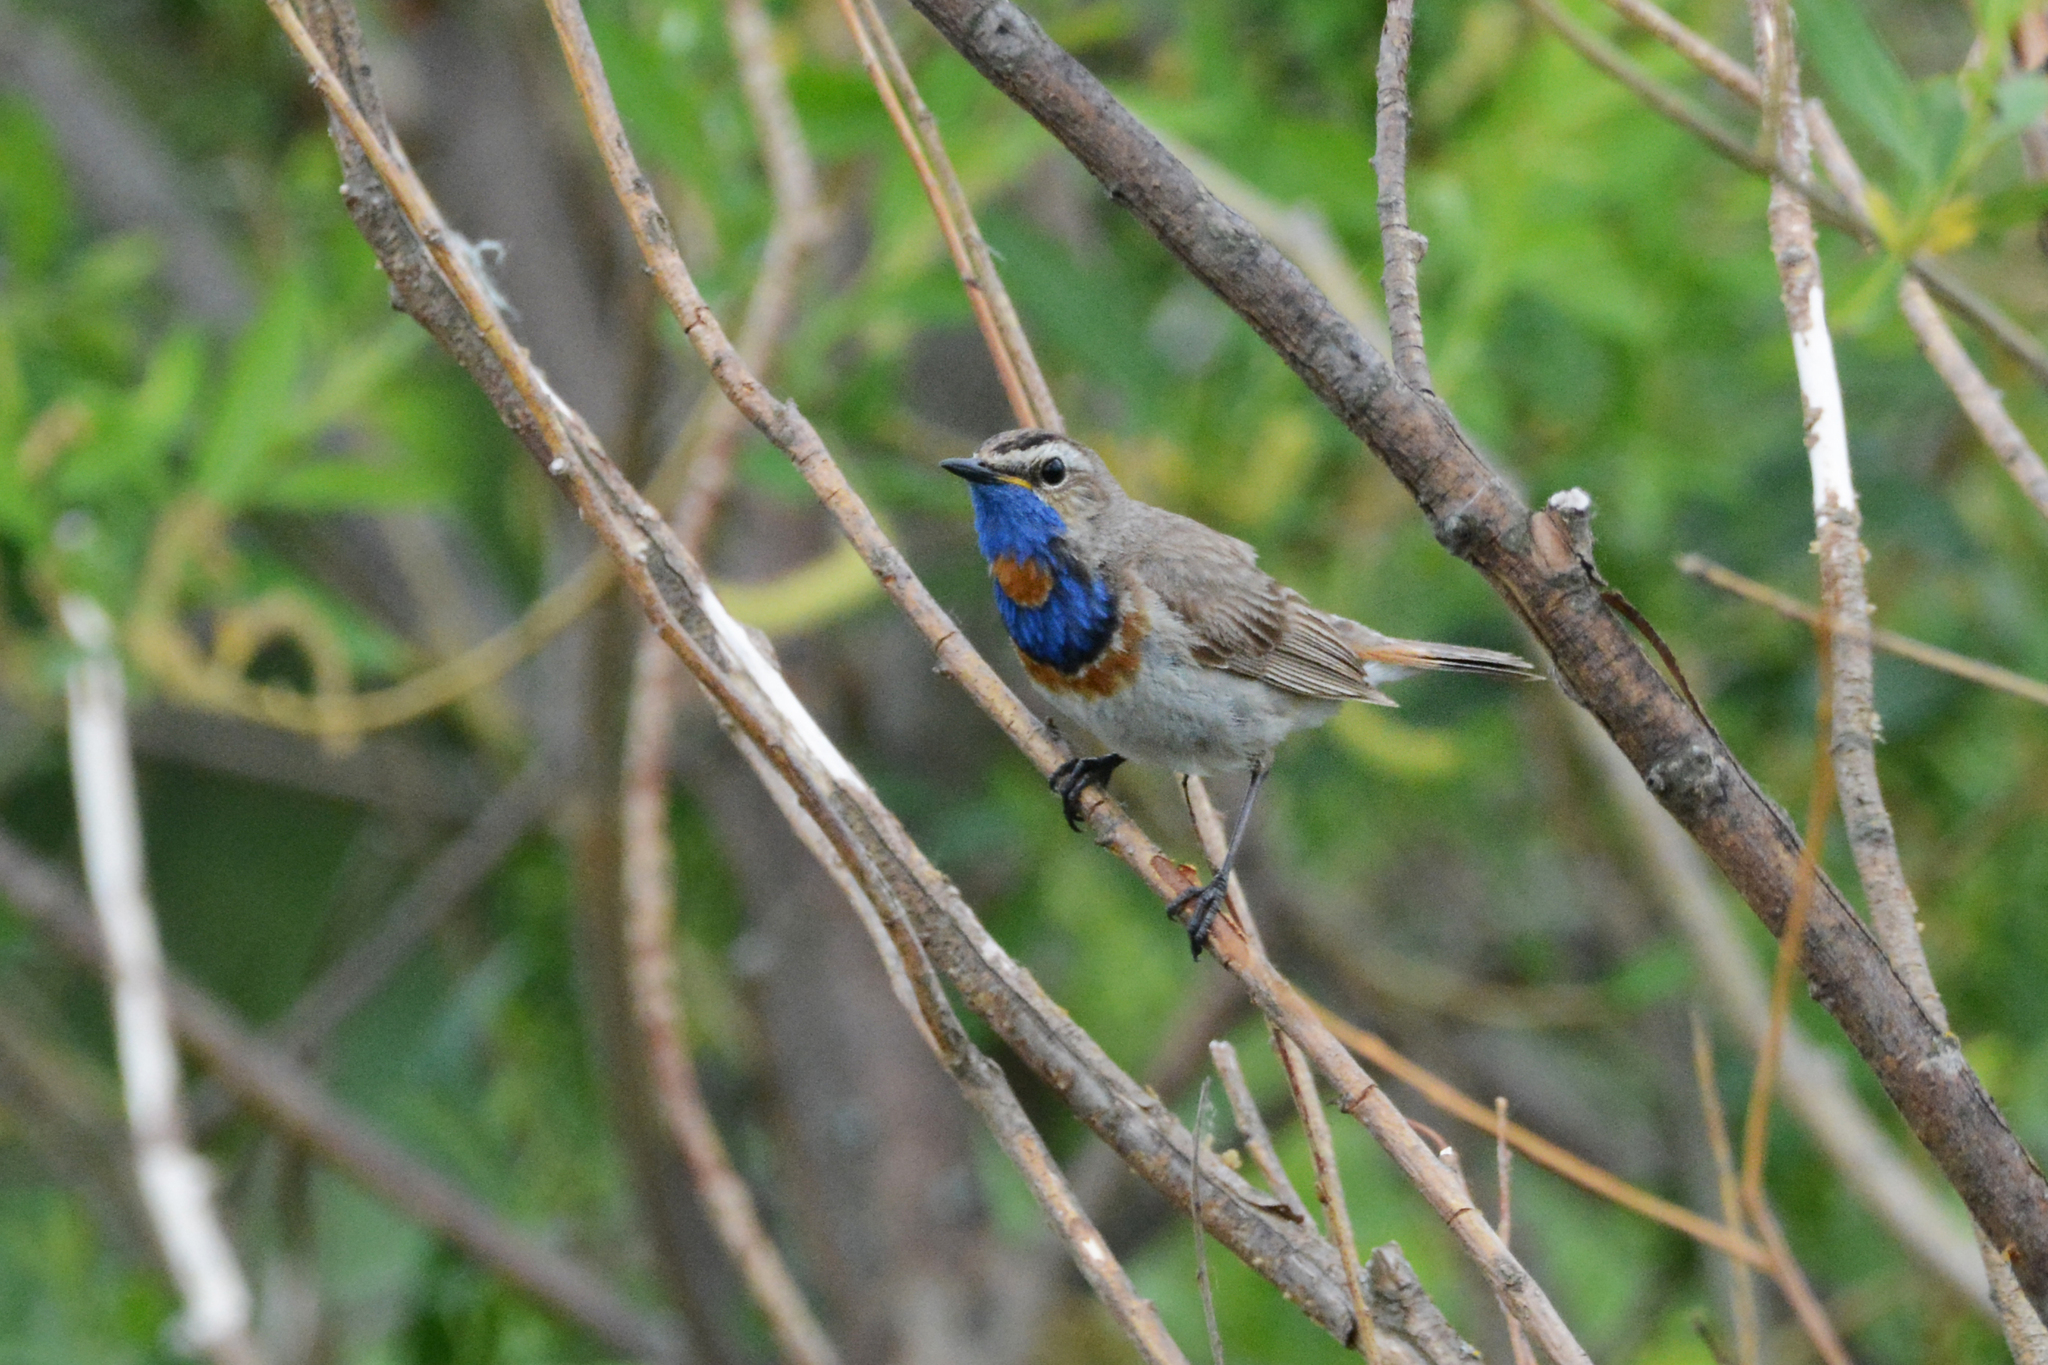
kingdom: Animalia
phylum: Chordata
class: Aves
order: Passeriformes
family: Muscicapidae
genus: Luscinia
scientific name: Luscinia svecica
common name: Bluethroat
